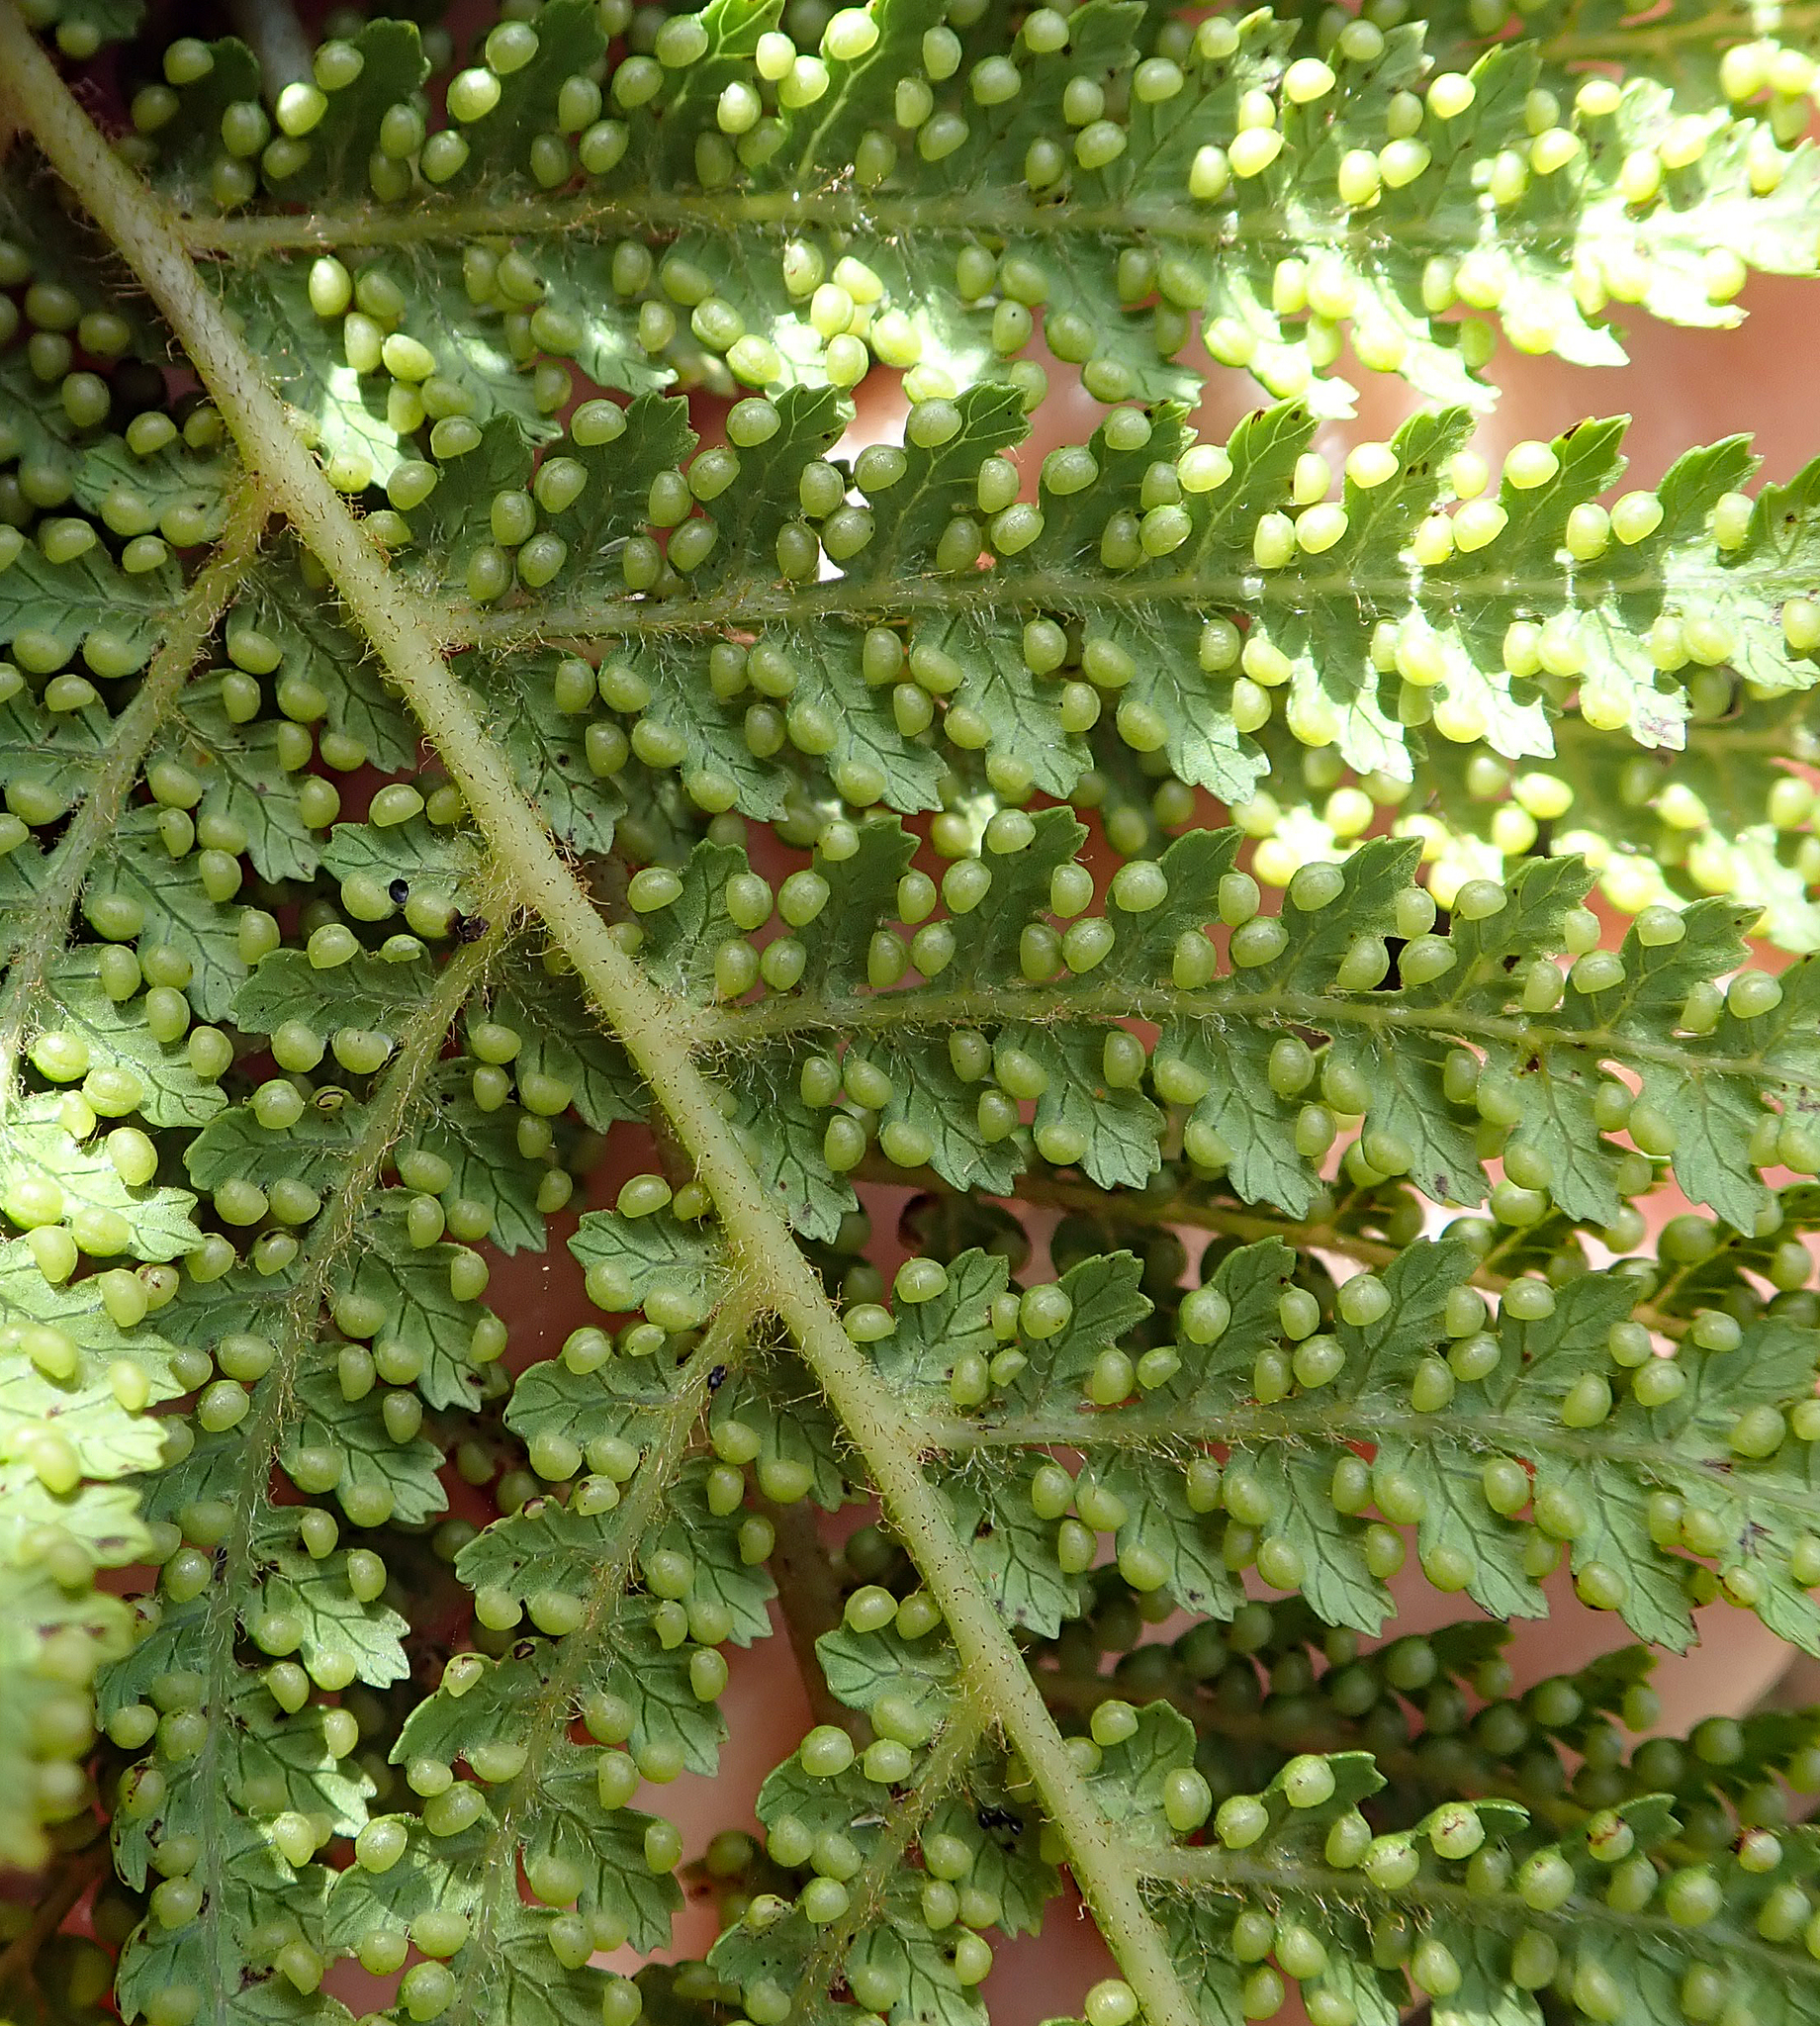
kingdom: Plantae
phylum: Tracheophyta
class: Polypodiopsida
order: Cyatheales
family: Dicksoniaceae
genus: Dicksonia
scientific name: Dicksonia fibrosa
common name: Golden tree fern
